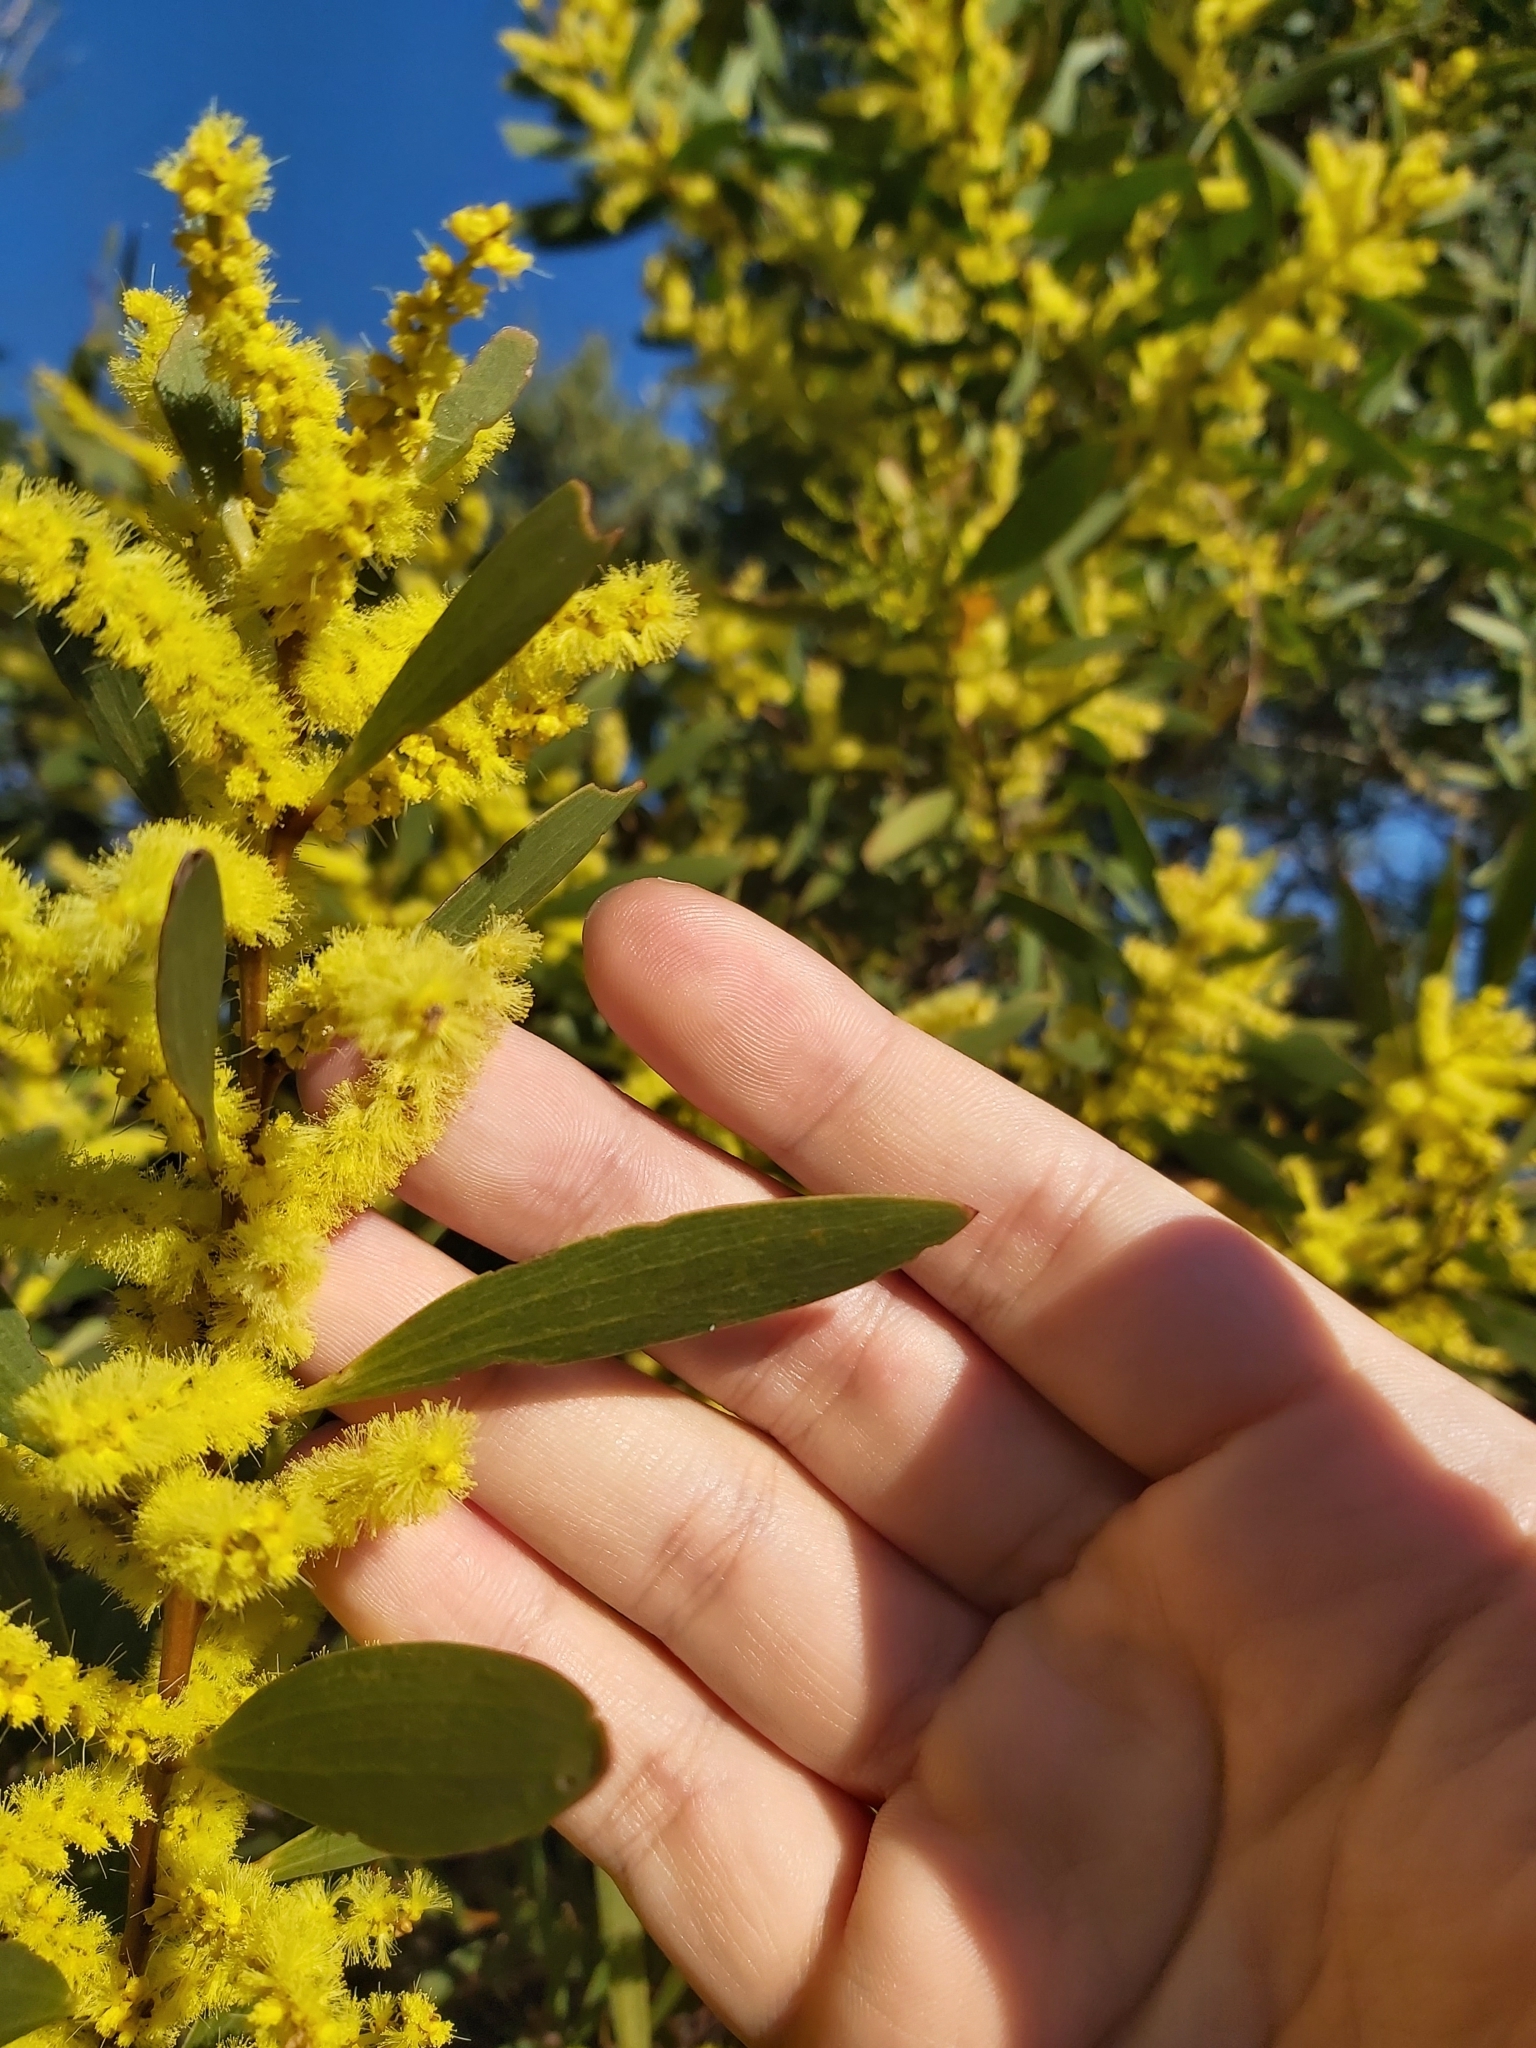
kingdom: Plantae
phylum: Tracheophyta
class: Magnoliopsida
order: Fabales
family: Fabaceae
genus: Acacia
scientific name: Acacia longifolia
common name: Sydney golden wattle
